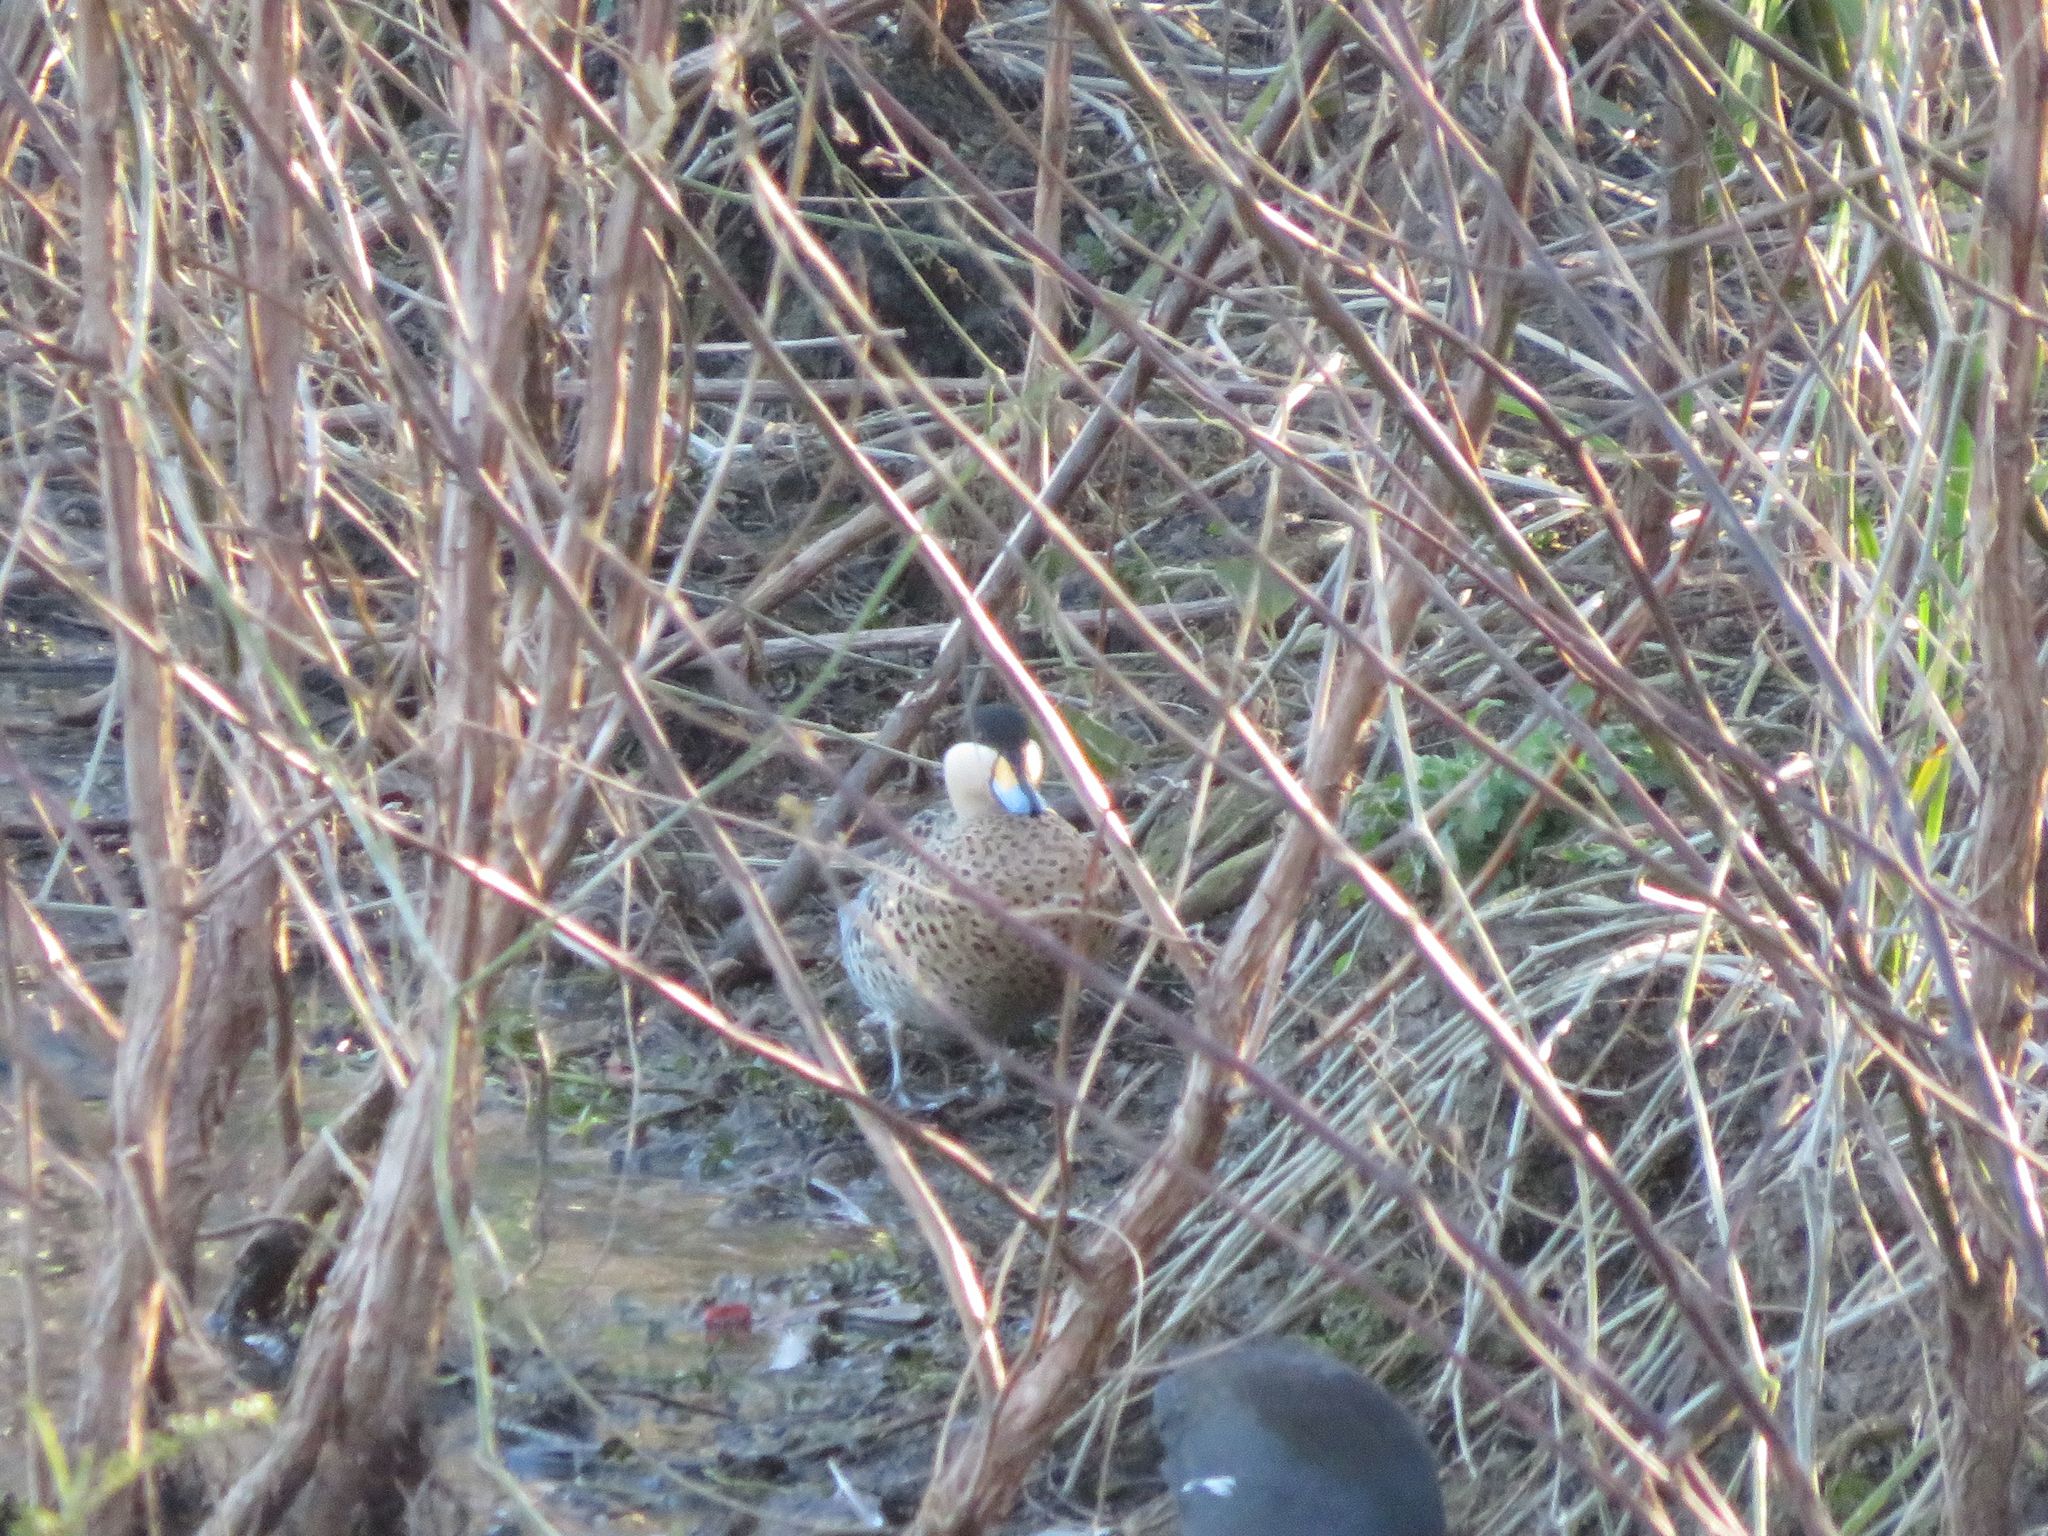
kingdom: Animalia
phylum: Chordata
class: Aves
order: Anseriformes
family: Anatidae
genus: Spatula
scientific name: Spatula versicolor
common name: Silver teal
